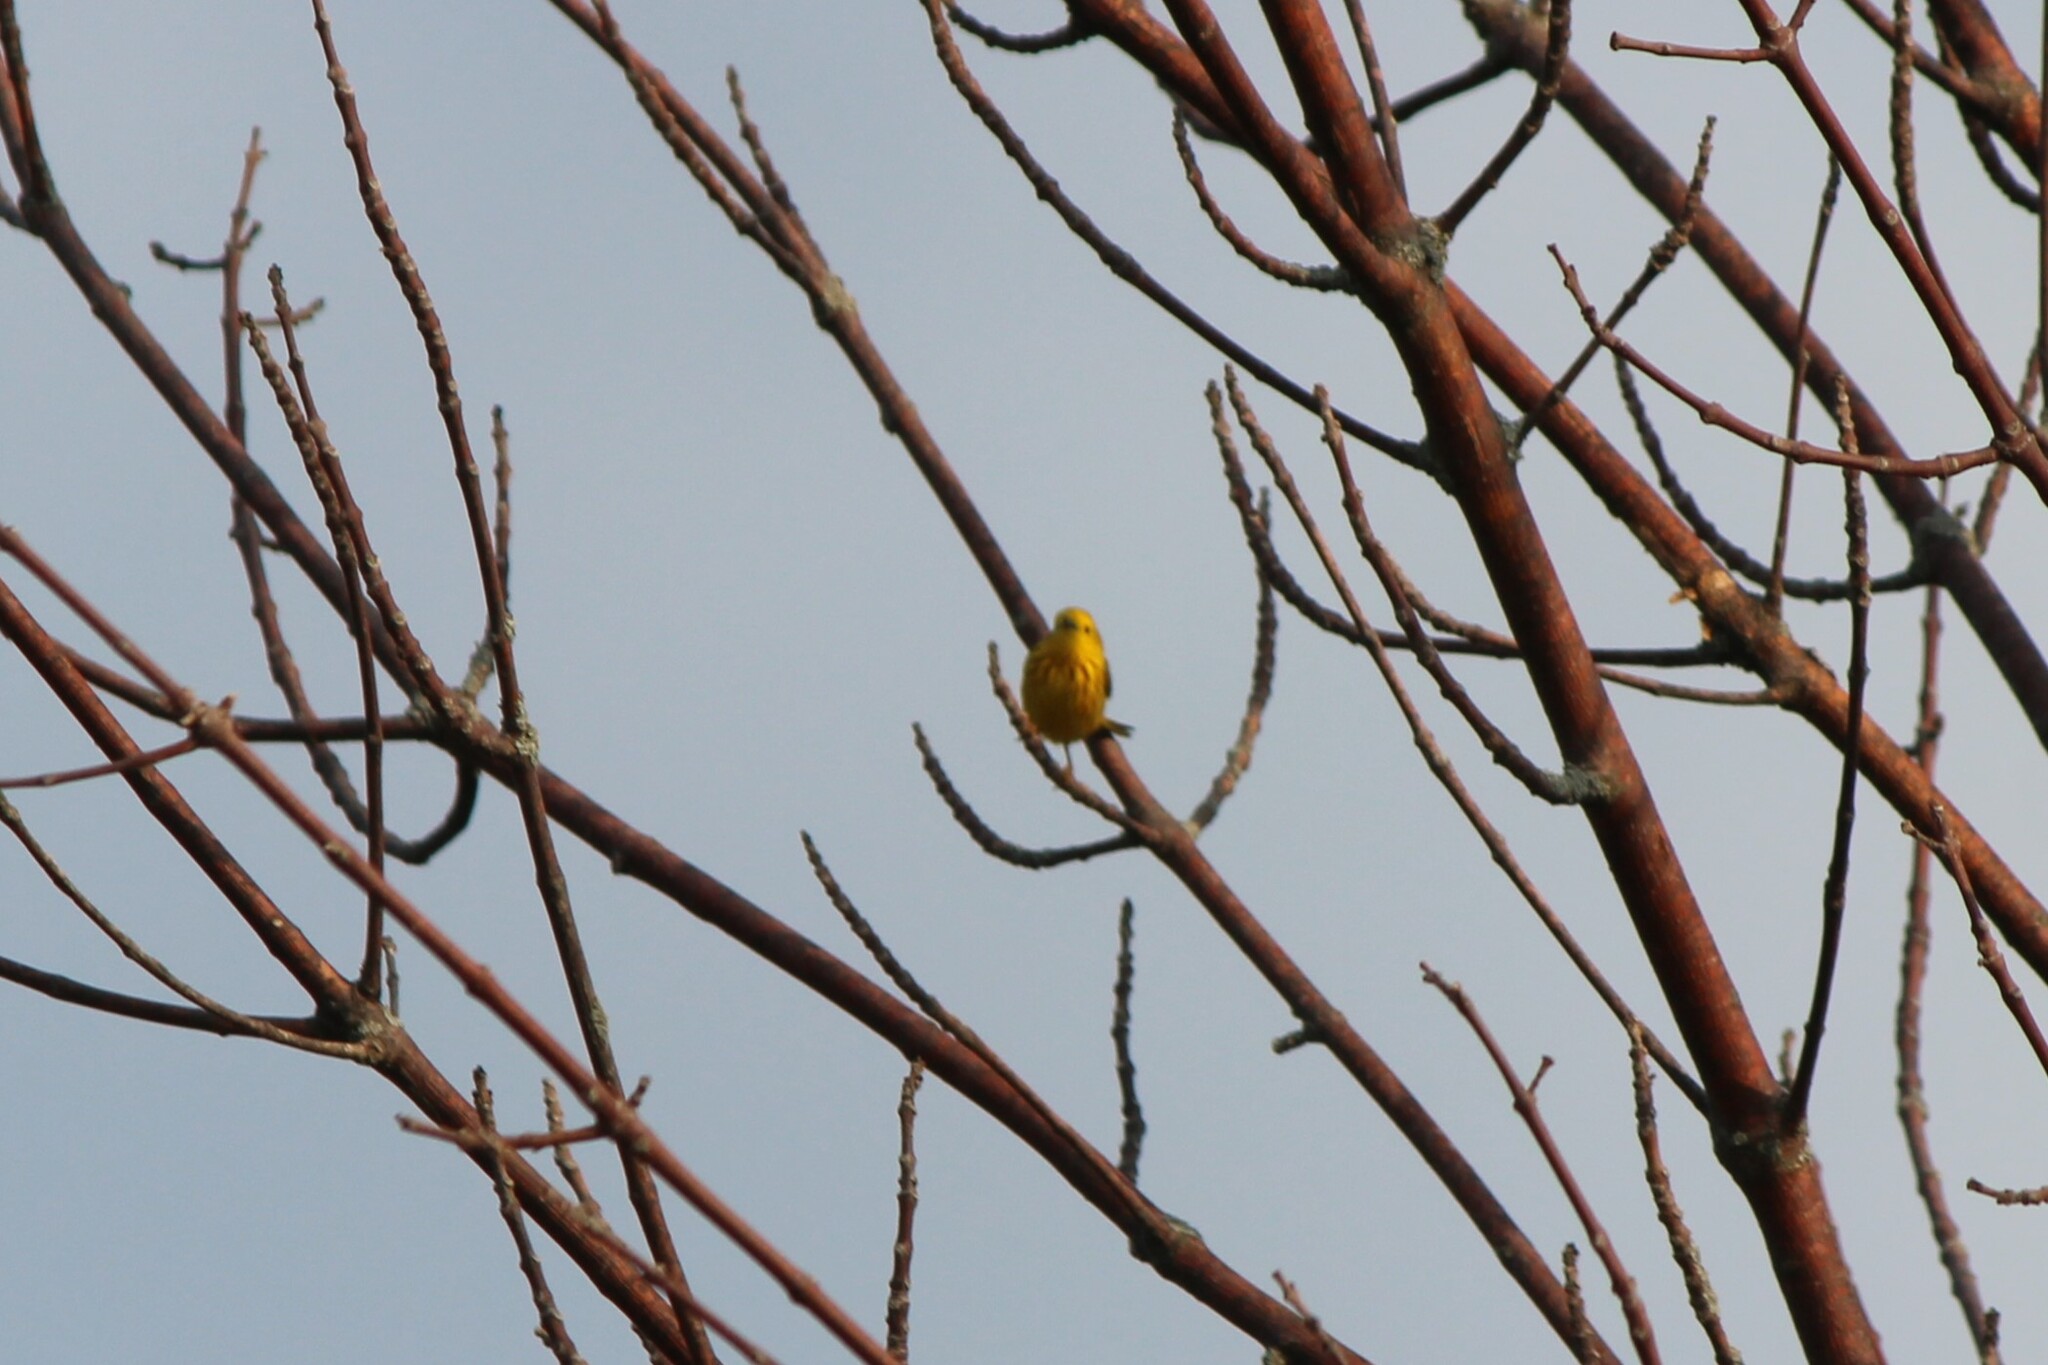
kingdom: Animalia
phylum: Chordata
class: Aves
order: Passeriformes
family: Parulidae
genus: Setophaga
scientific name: Setophaga petechia
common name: Yellow warbler
